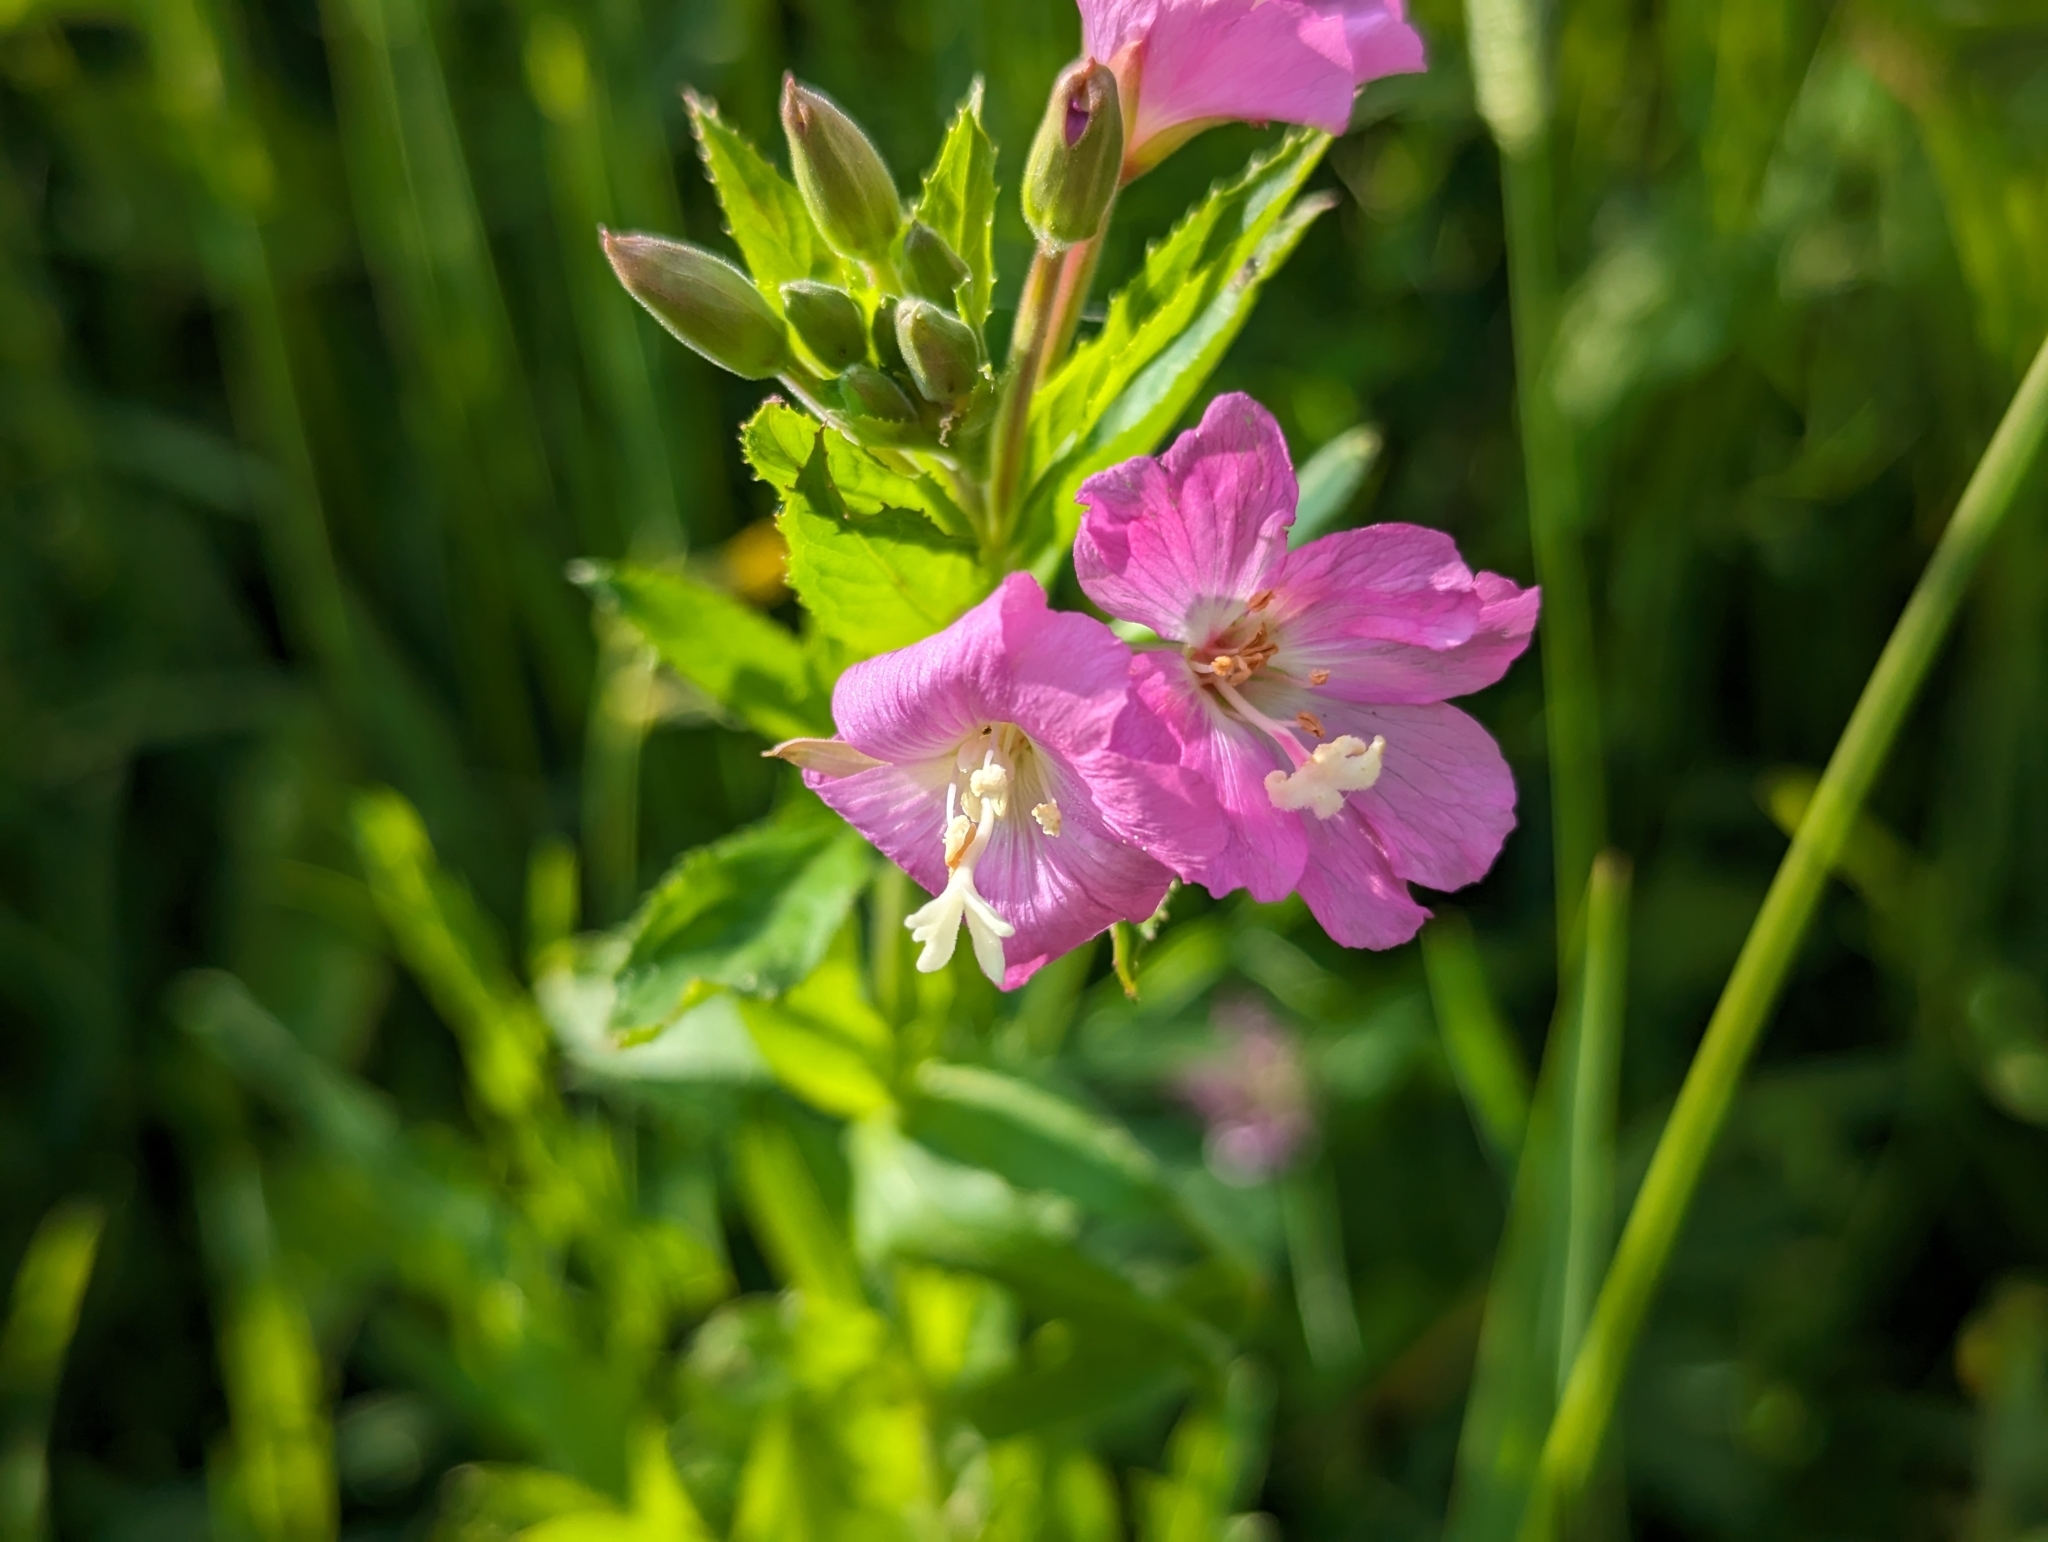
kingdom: Plantae
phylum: Tracheophyta
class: Magnoliopsida
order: Myrtales
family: Onagraceae
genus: Epilobium
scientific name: Epilobium hirsutum
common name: Great willowherb
